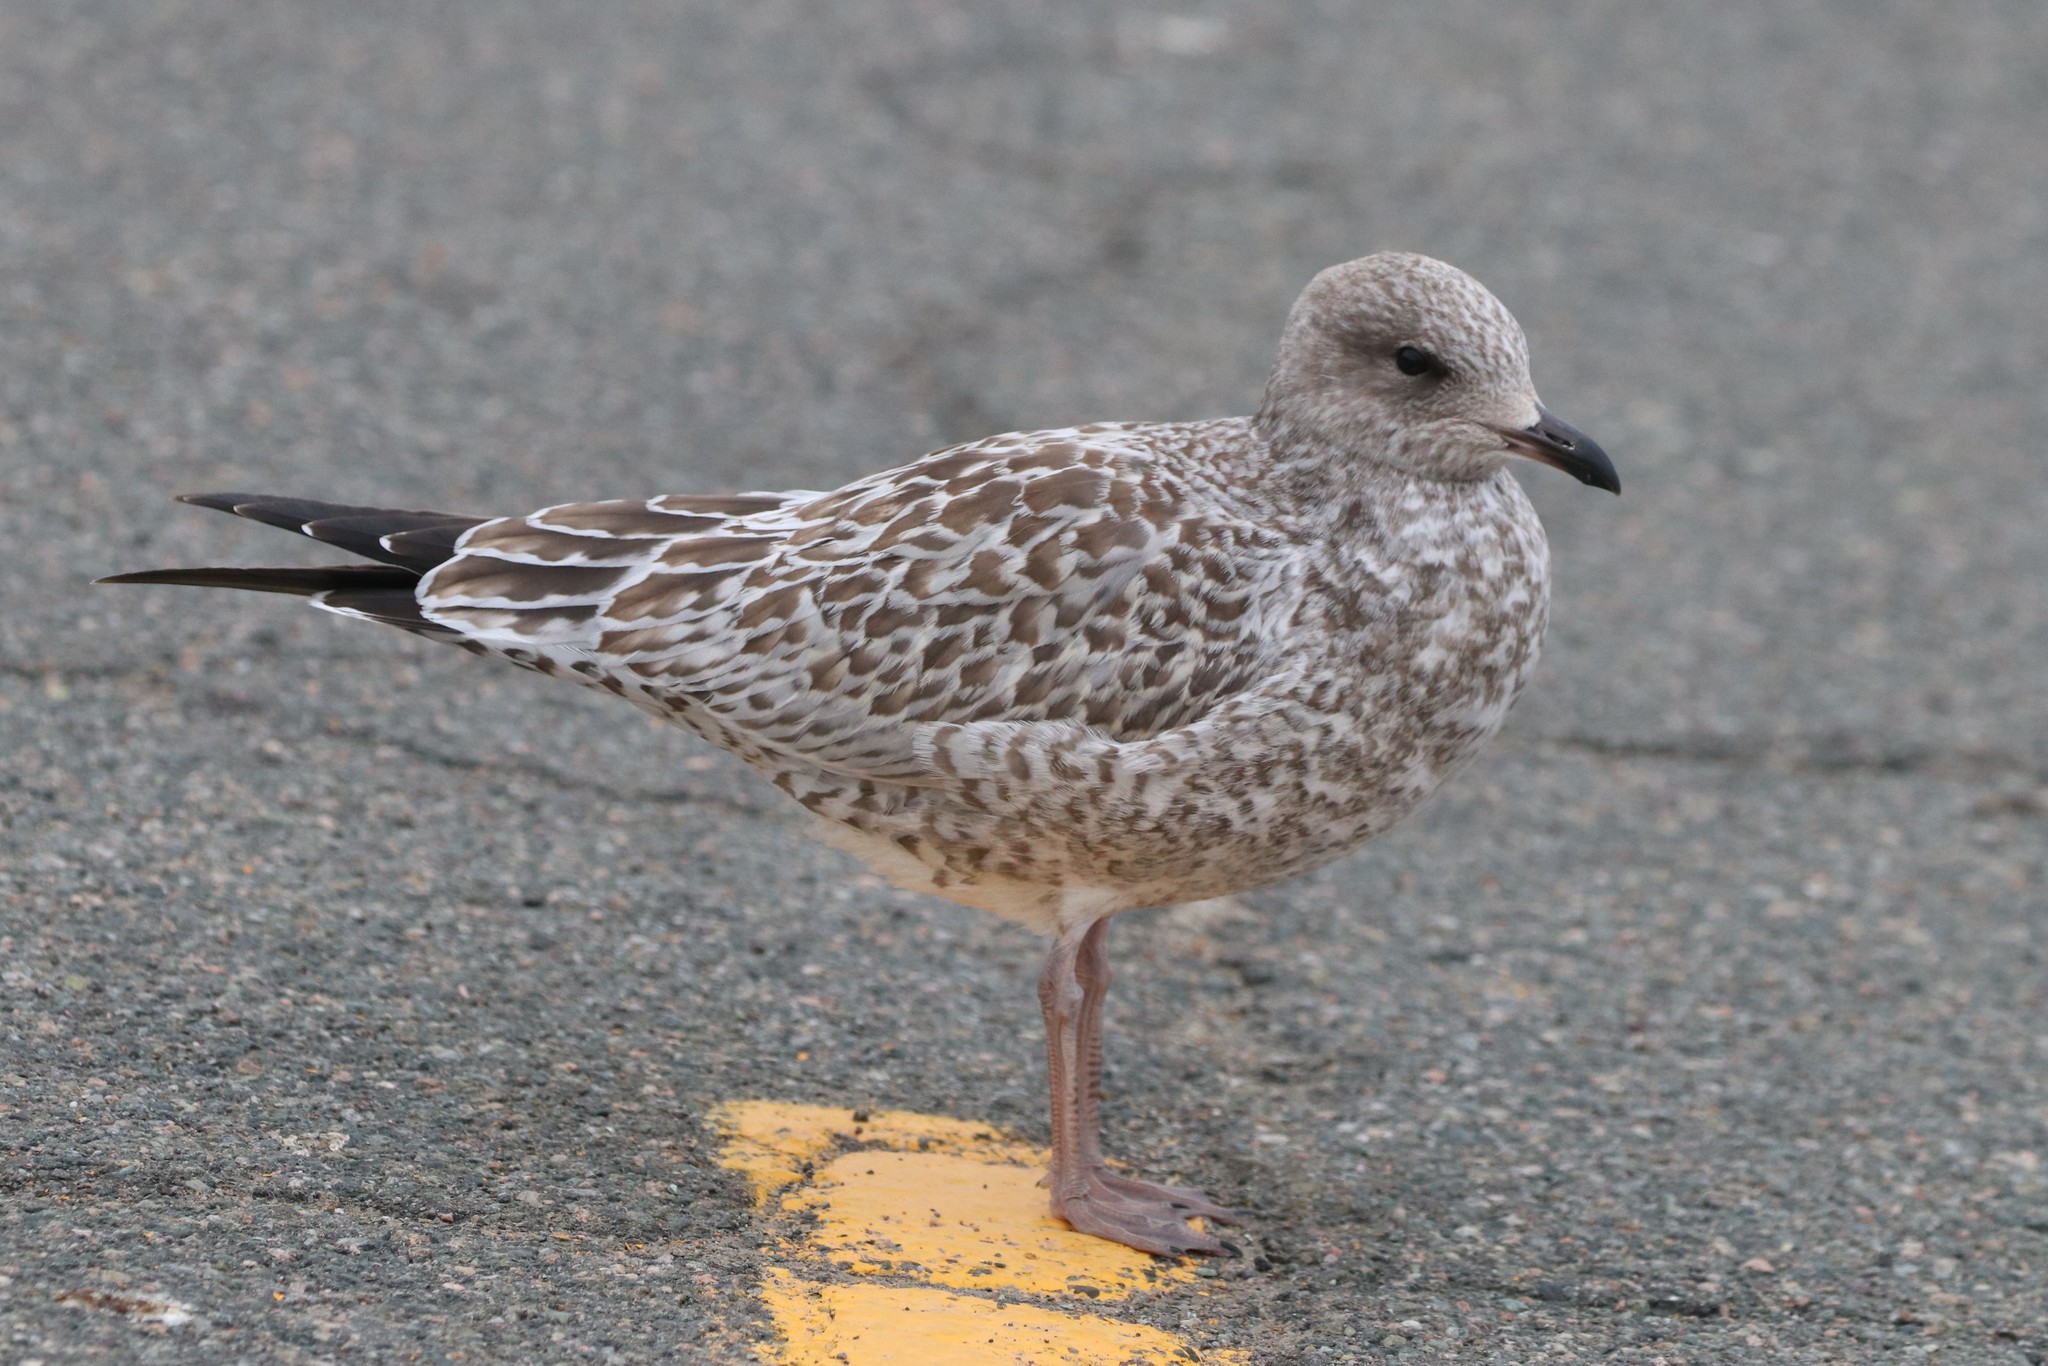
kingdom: Animalia
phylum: Chordata
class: Aves
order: Charadriiformes
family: Laridae
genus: Larus
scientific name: Larus delawarensis
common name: Ring-billed gull
